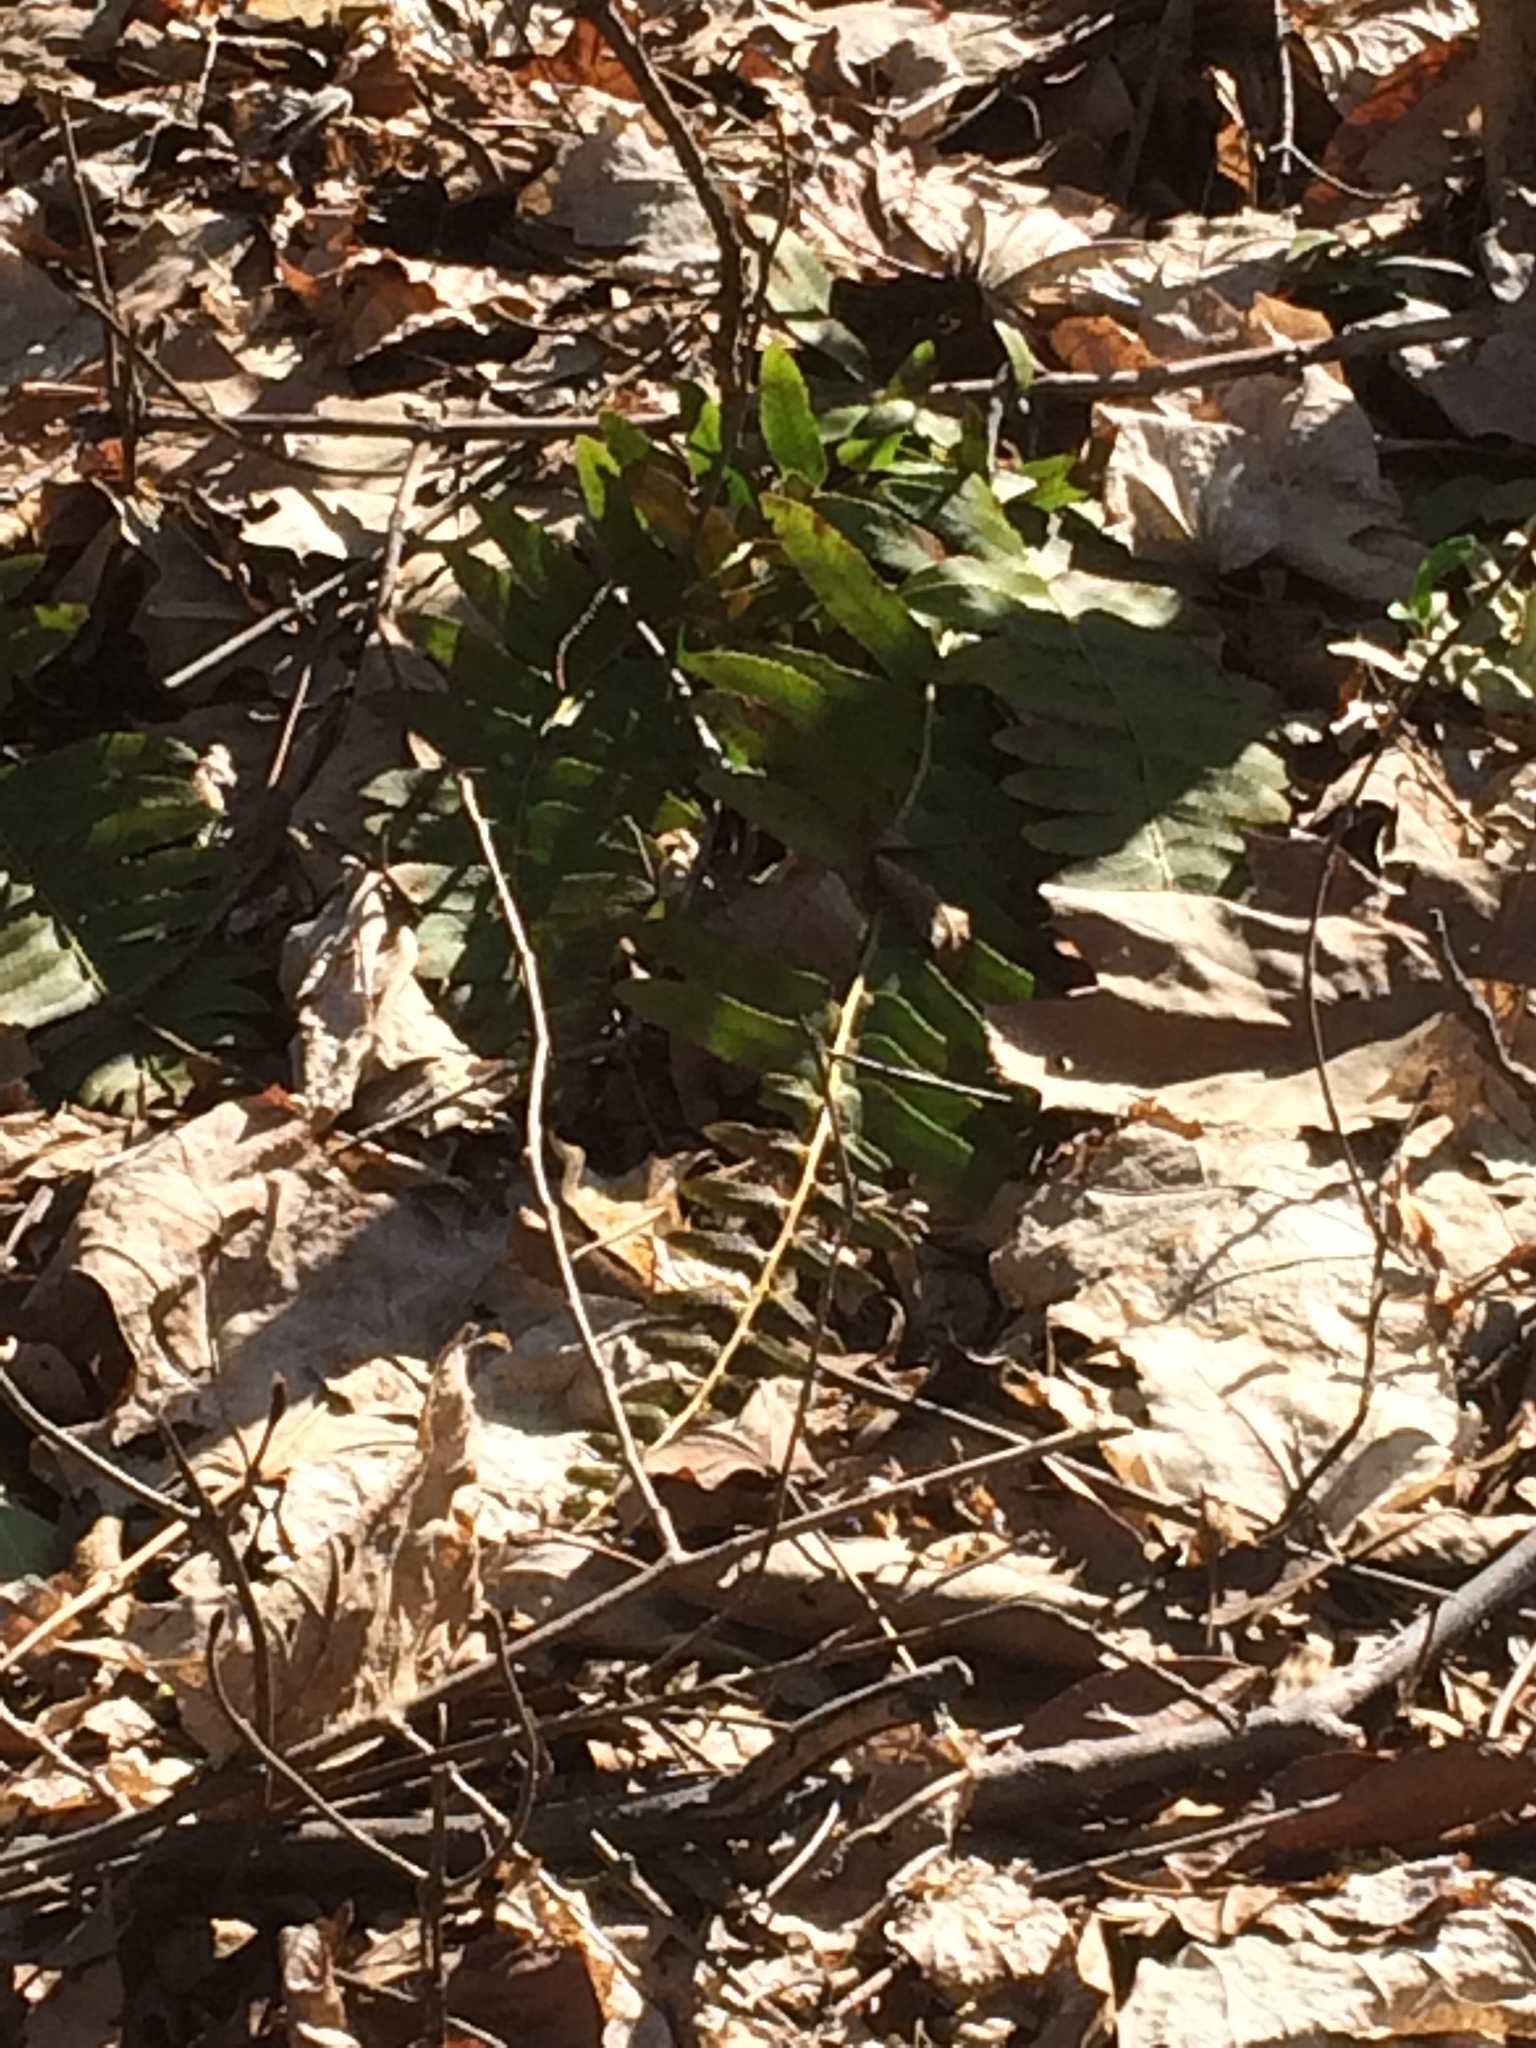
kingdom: Plantae
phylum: Tracheophyta
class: Polypodiopsida
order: Polypodiales
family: Dryopteridaceae
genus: Polystichum
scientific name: Polystichum acrostichoides
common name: Christmas fern
